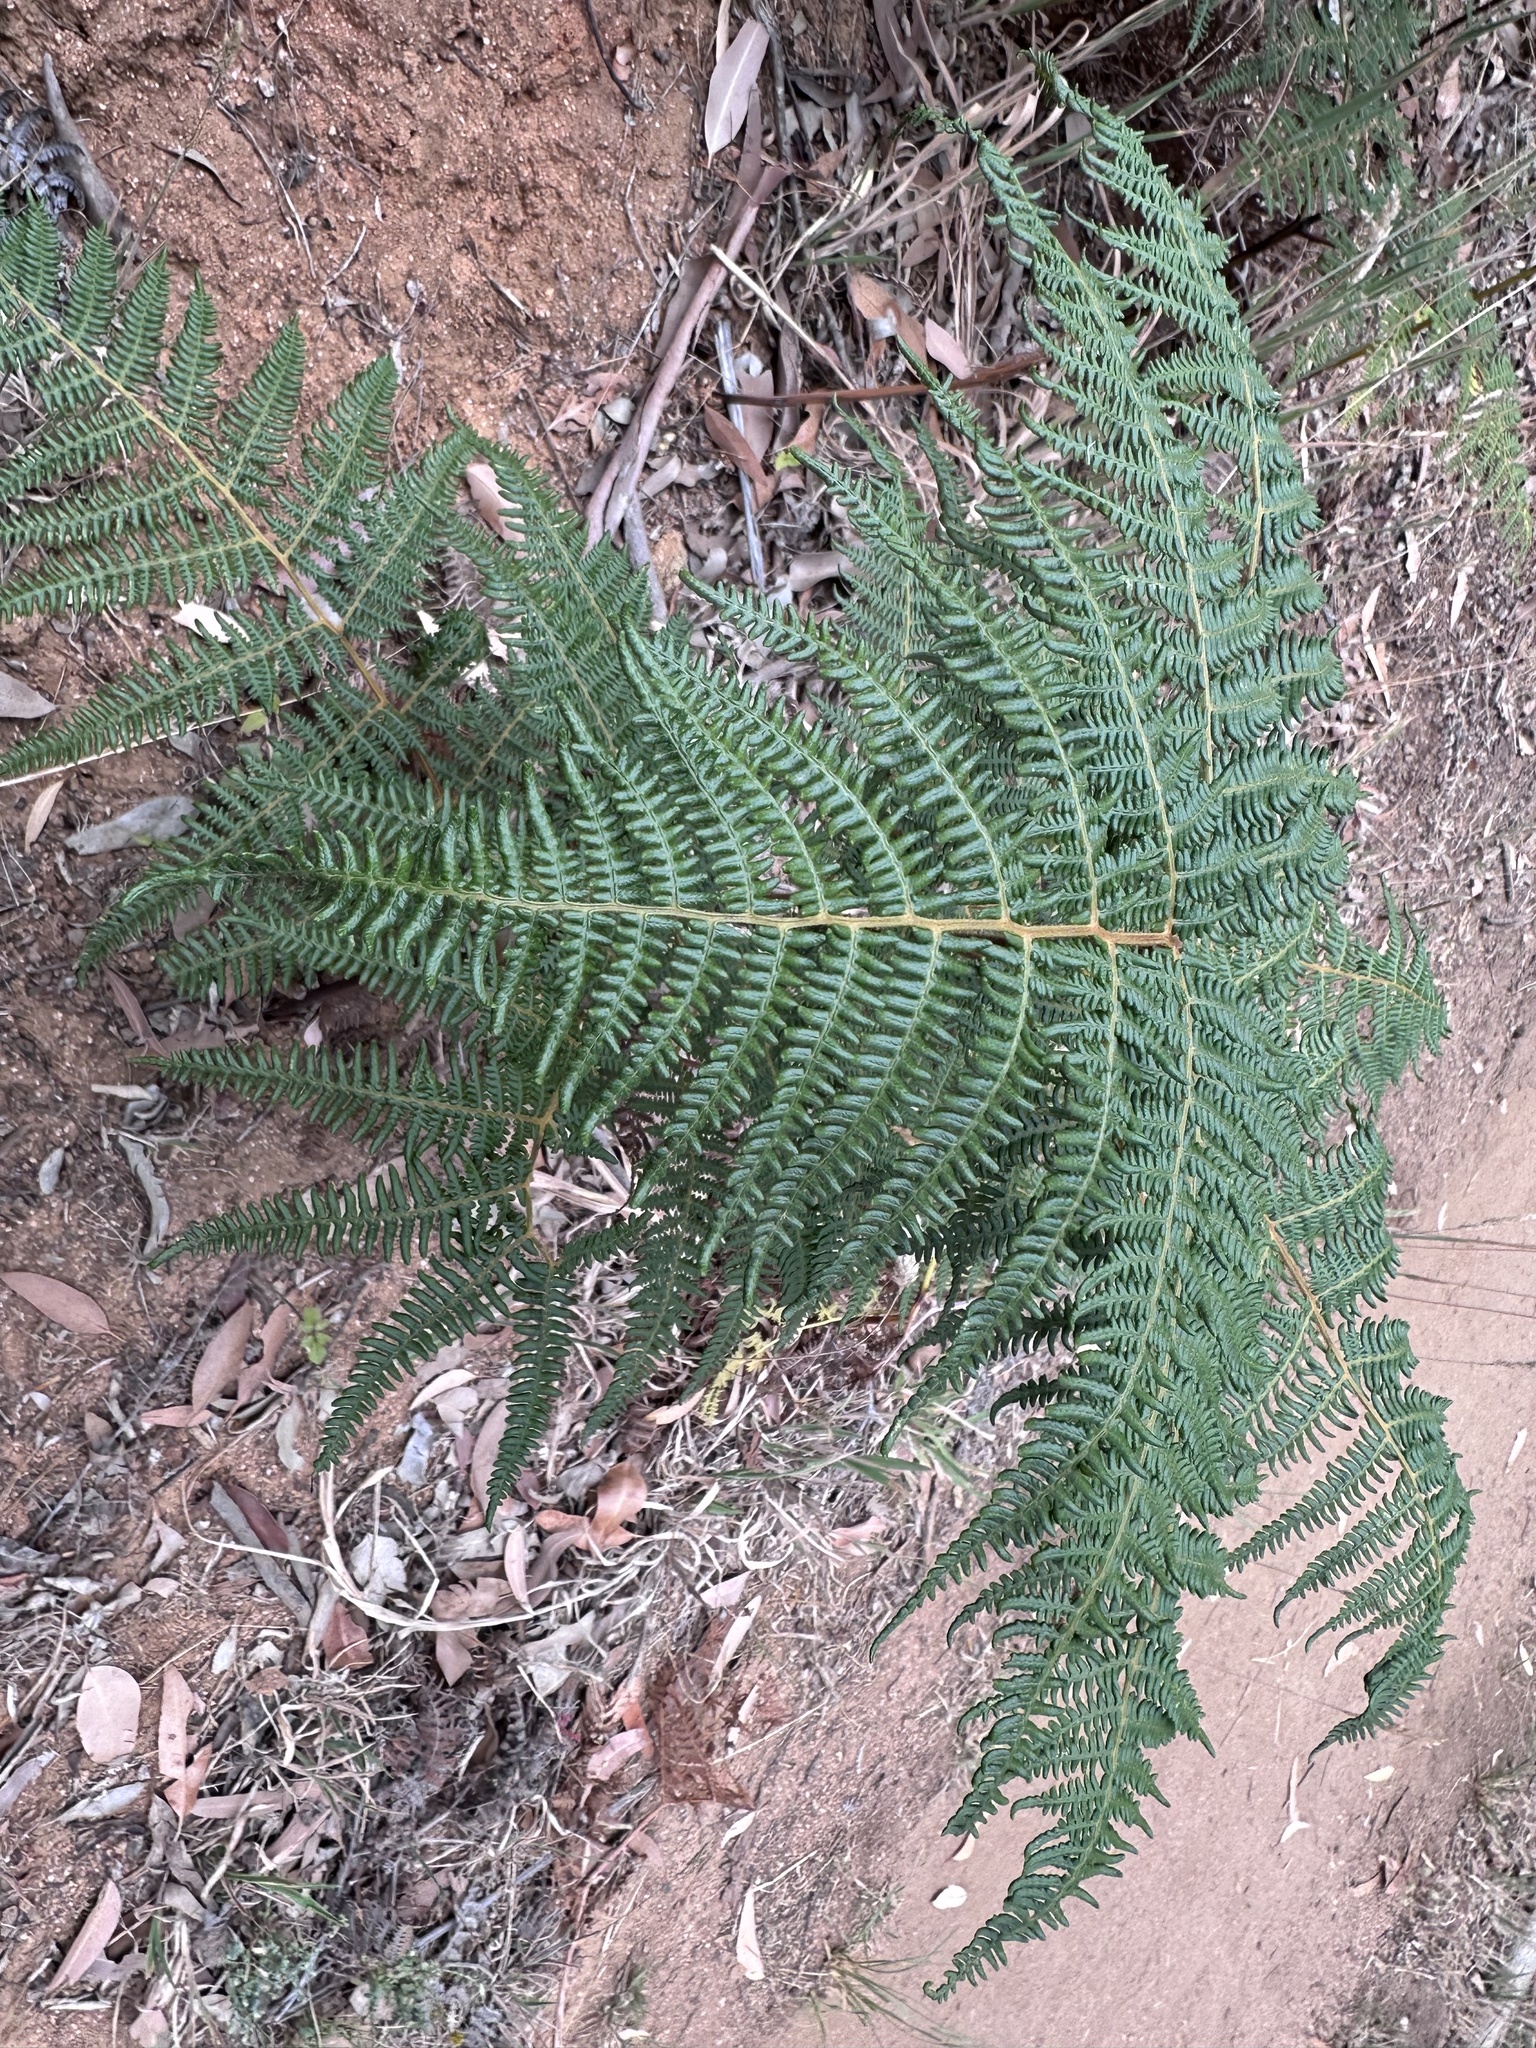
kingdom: Plantae
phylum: Tracheophyta
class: Polypodiopsida
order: Polypodiales
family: Dennstaedtiaceae
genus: Pteridium
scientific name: Pteridium aquilinum
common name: Bracken
